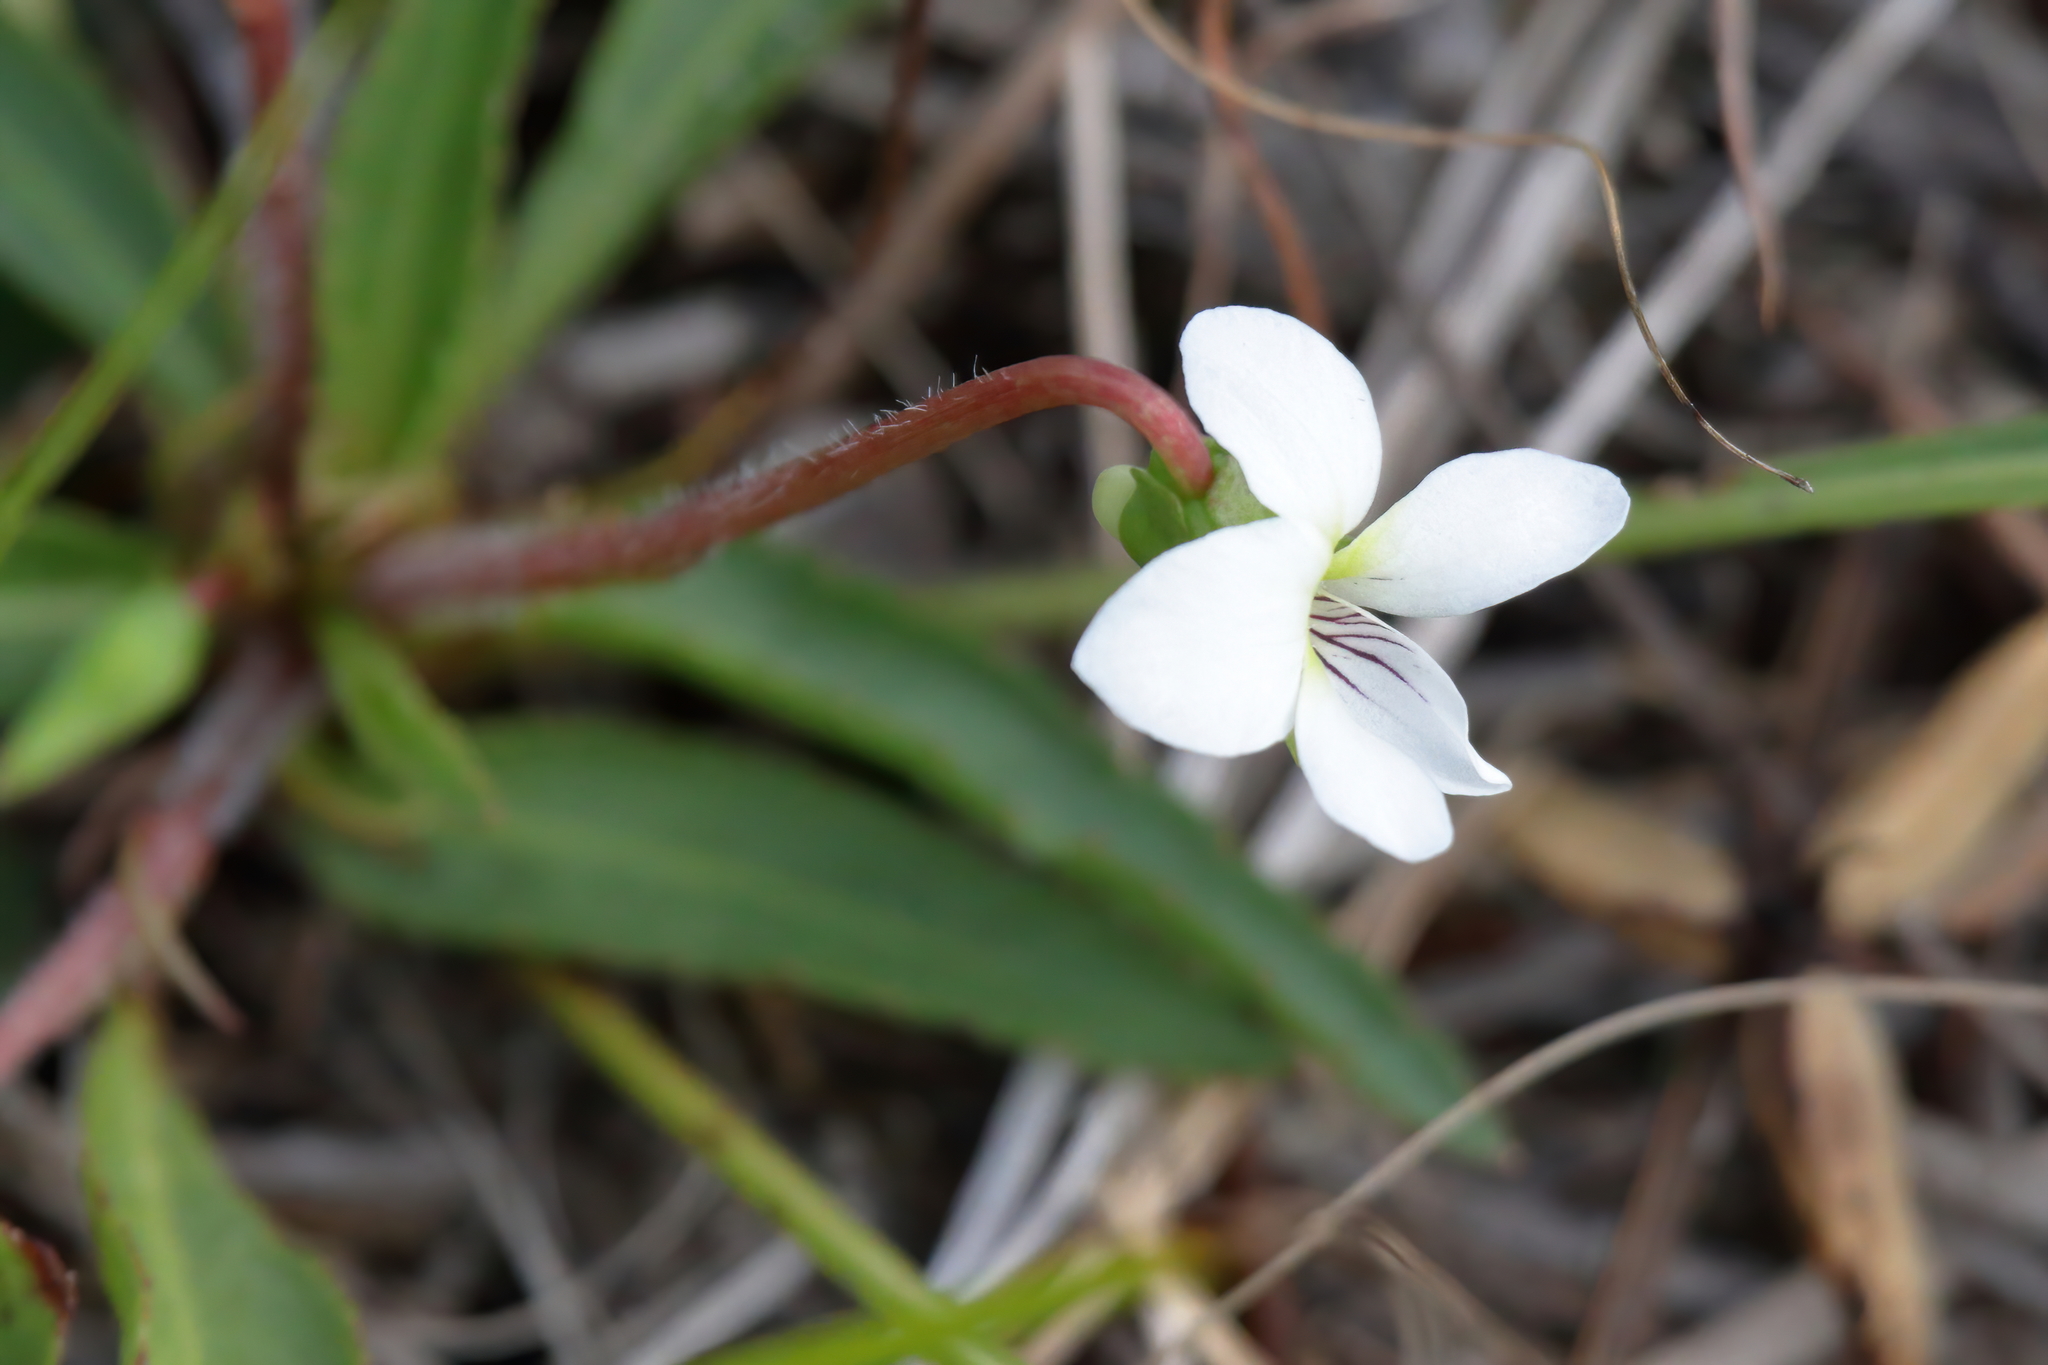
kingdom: Plantae
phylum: Tracheophyta
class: Magnoliopsida
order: Malpighiales
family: Violaceae
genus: Viola
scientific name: Viola lanceolata
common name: Bog white violet
